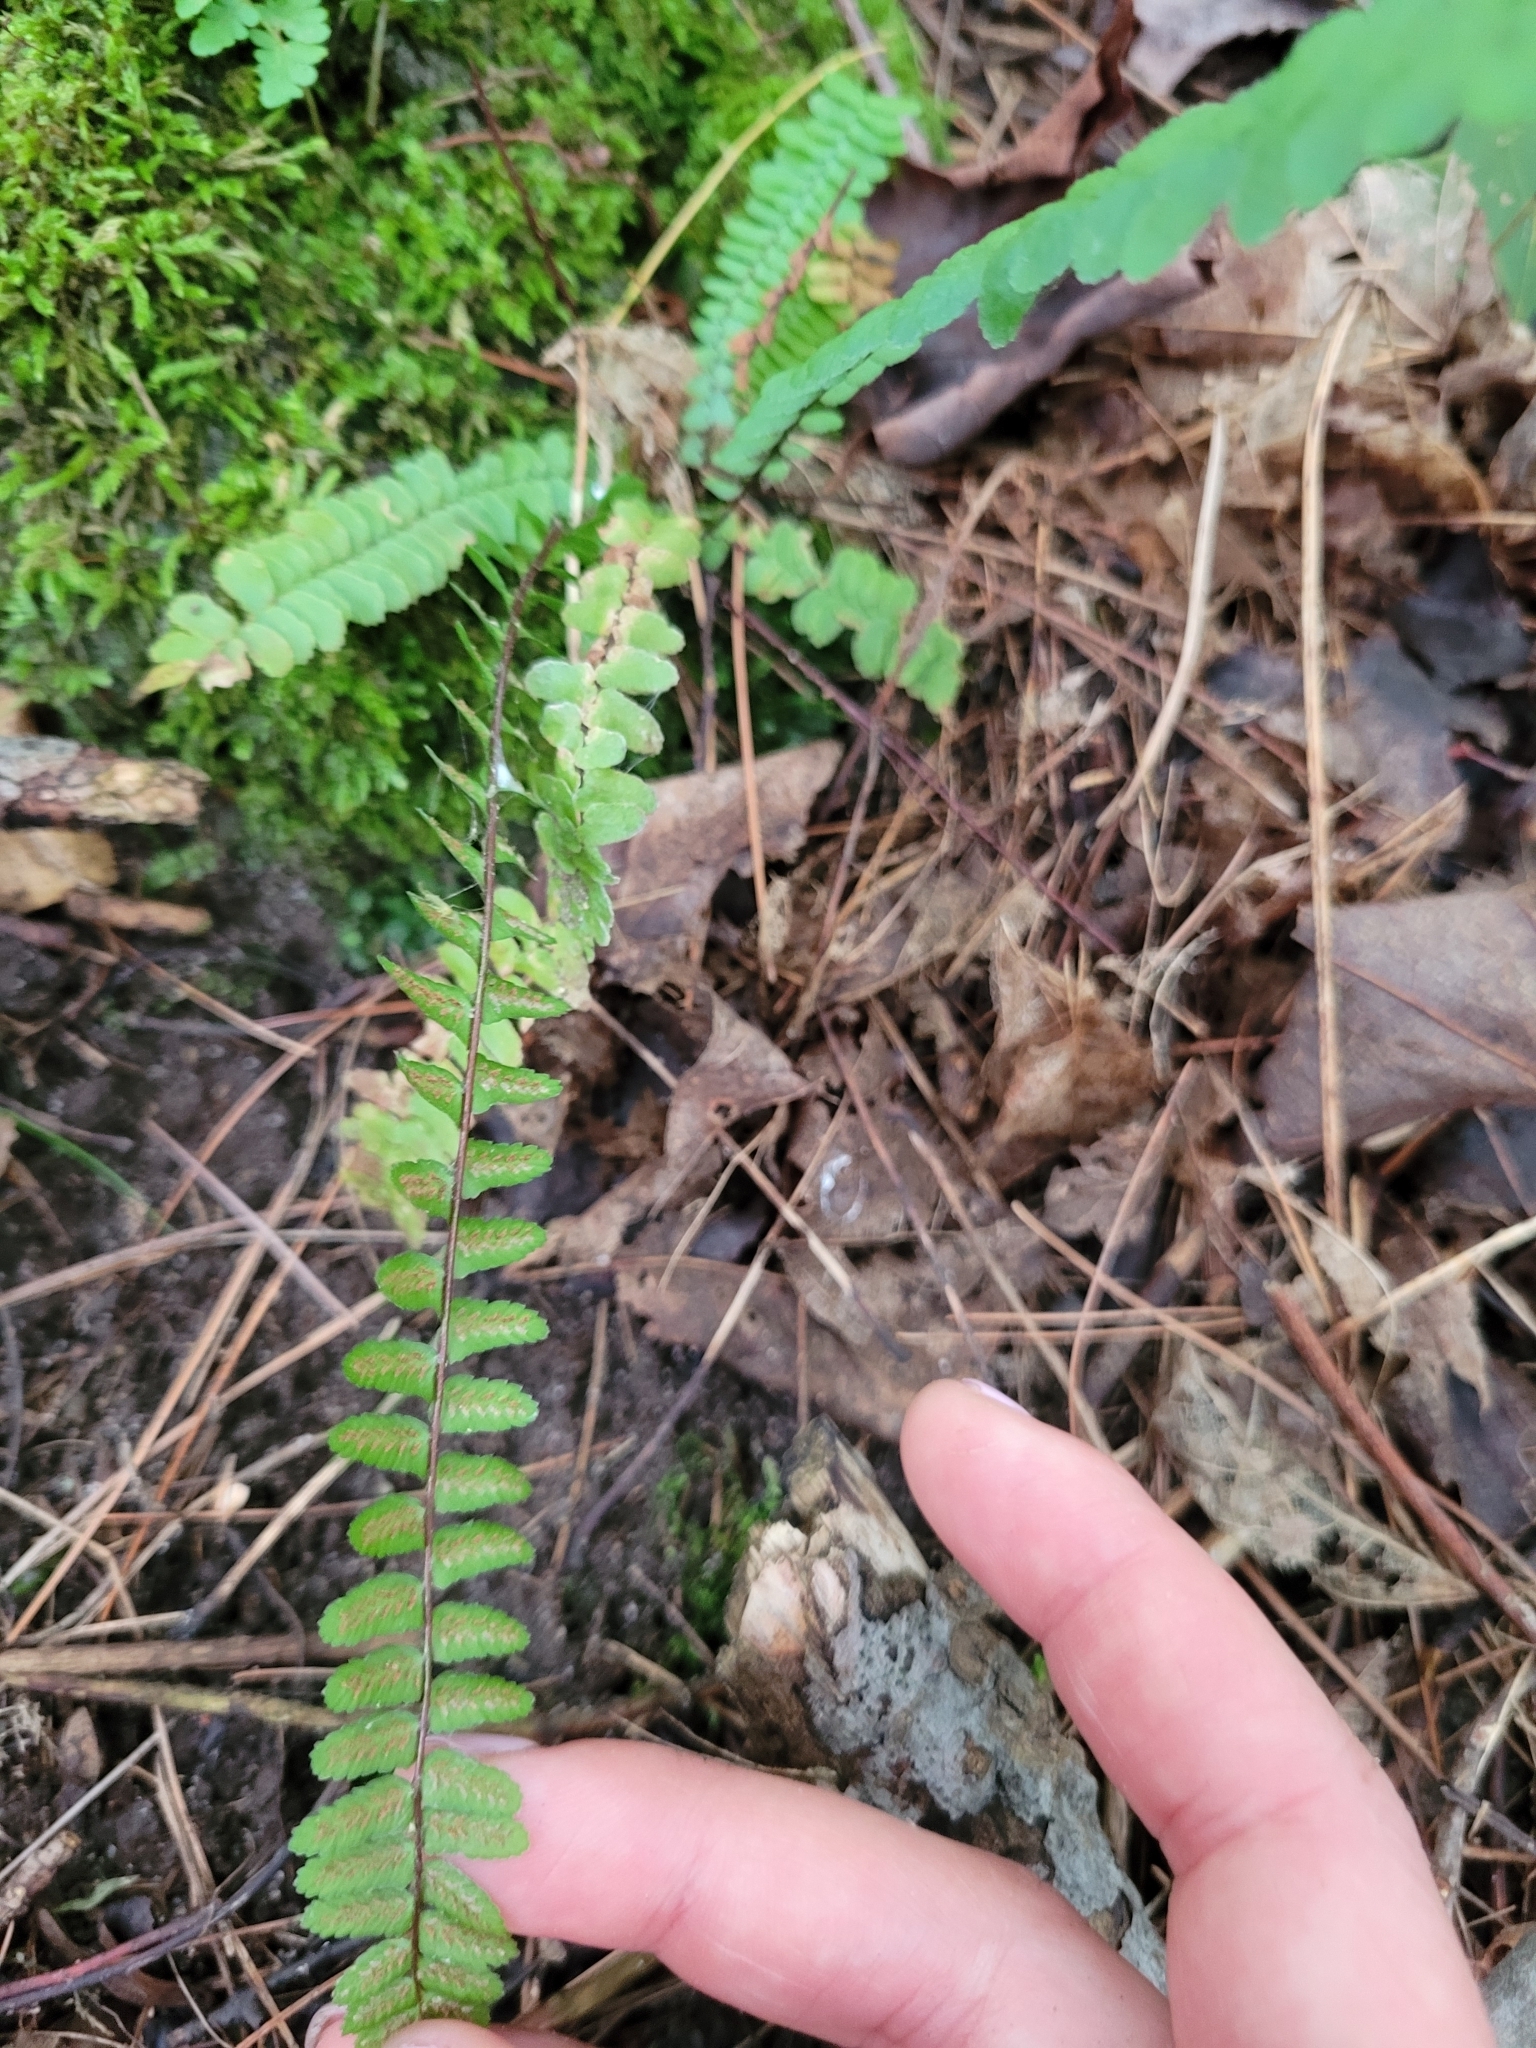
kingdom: Plantae
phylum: Tracheophyta
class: Polypodiopsida
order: Polypodiales
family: Aspleniaceae
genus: Asplenium
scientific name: Asplenium platyneuron
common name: Ebony spleenwort
